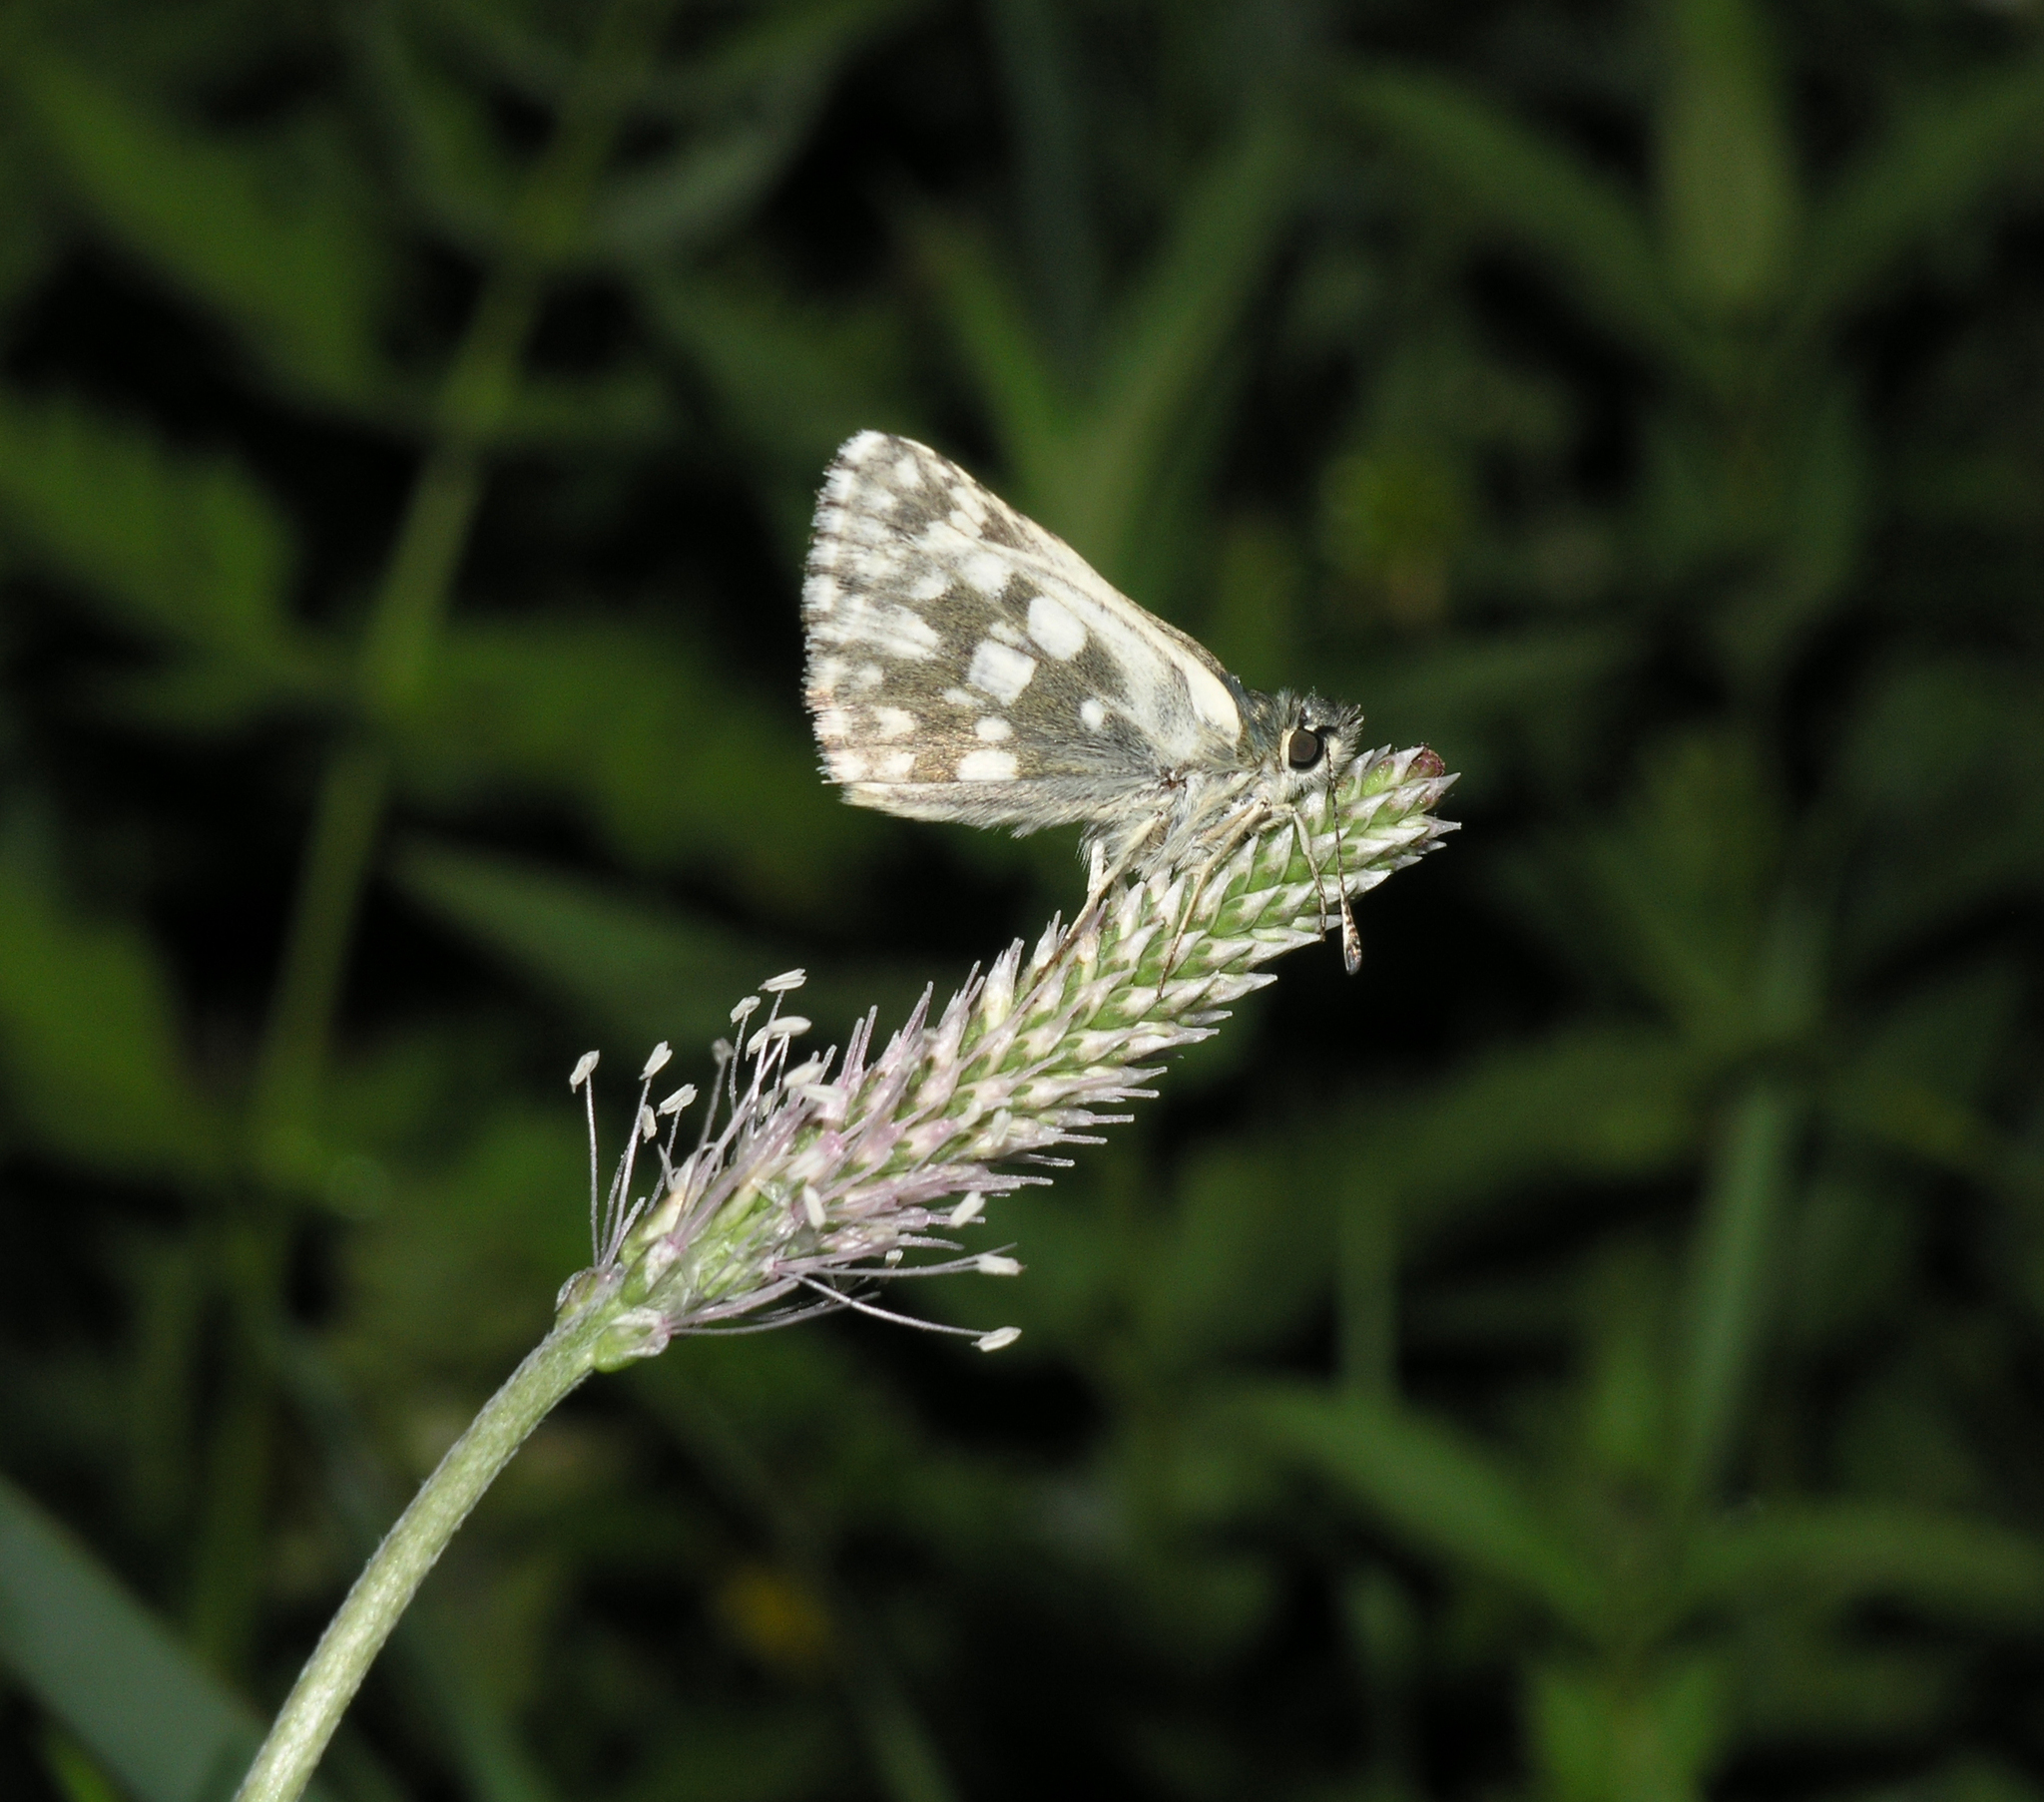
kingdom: Animalia
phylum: Arthropoda
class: Insecta
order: Lepidoptera
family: Hesperiidae
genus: Syrichtus
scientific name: Syrichtus tessellum
